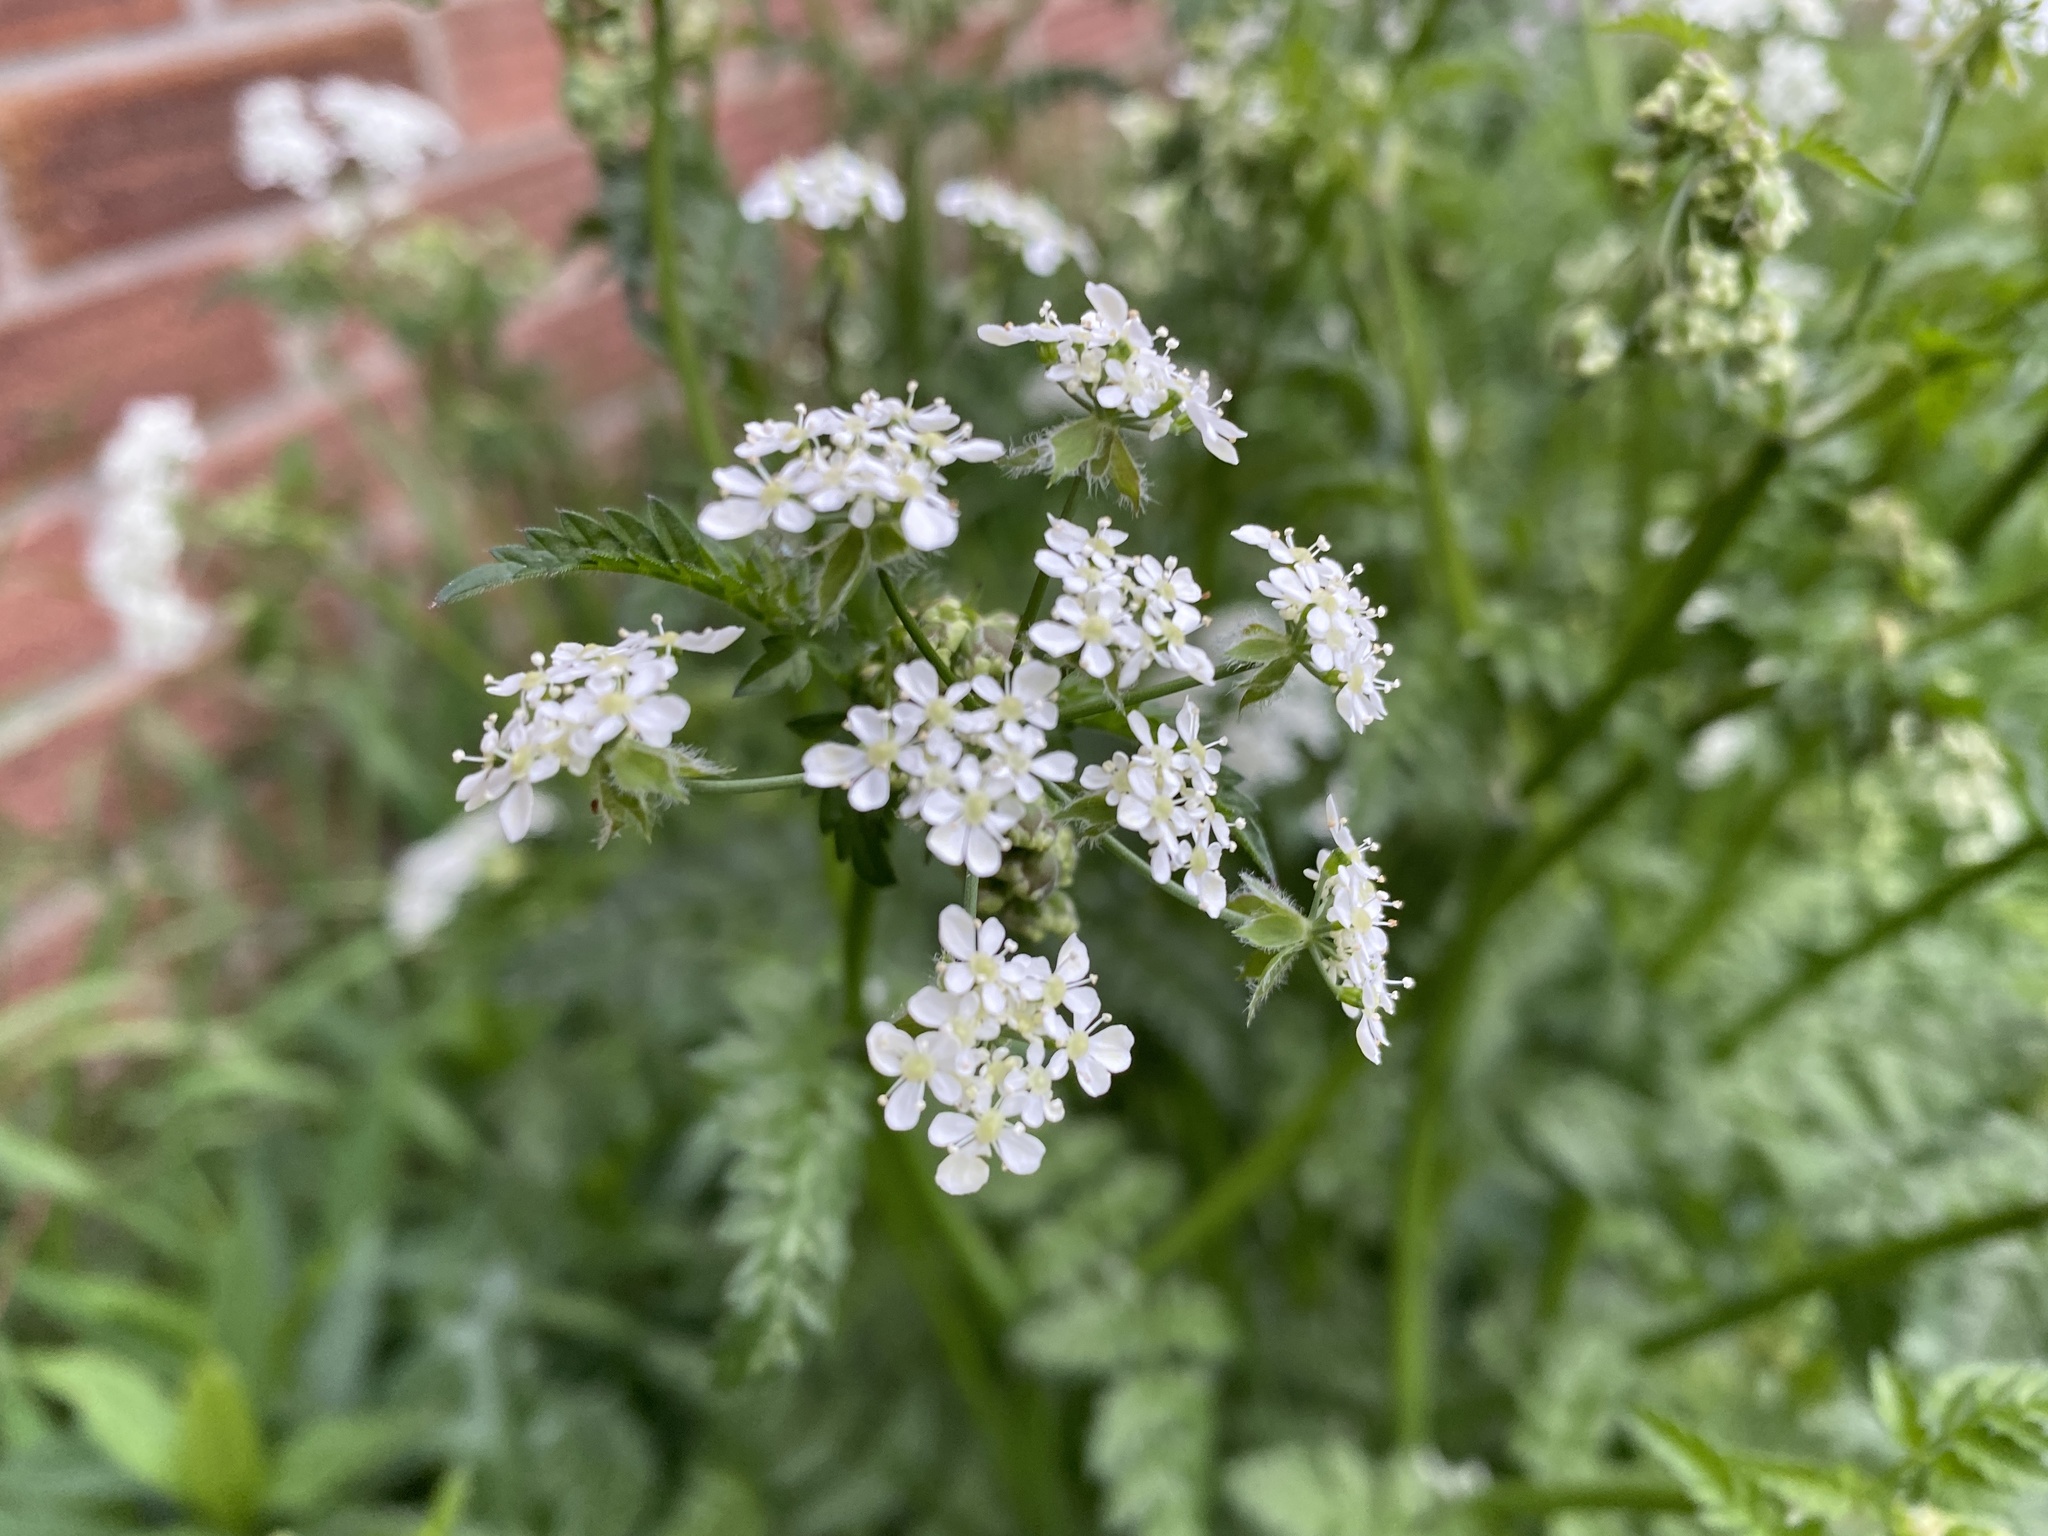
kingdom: Plantae
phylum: Tracheophyta
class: Magnoliopsida
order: Apiales
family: Apiaceae
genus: Anthriscus
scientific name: Anthriscus sylvestris
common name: Cow parsley
